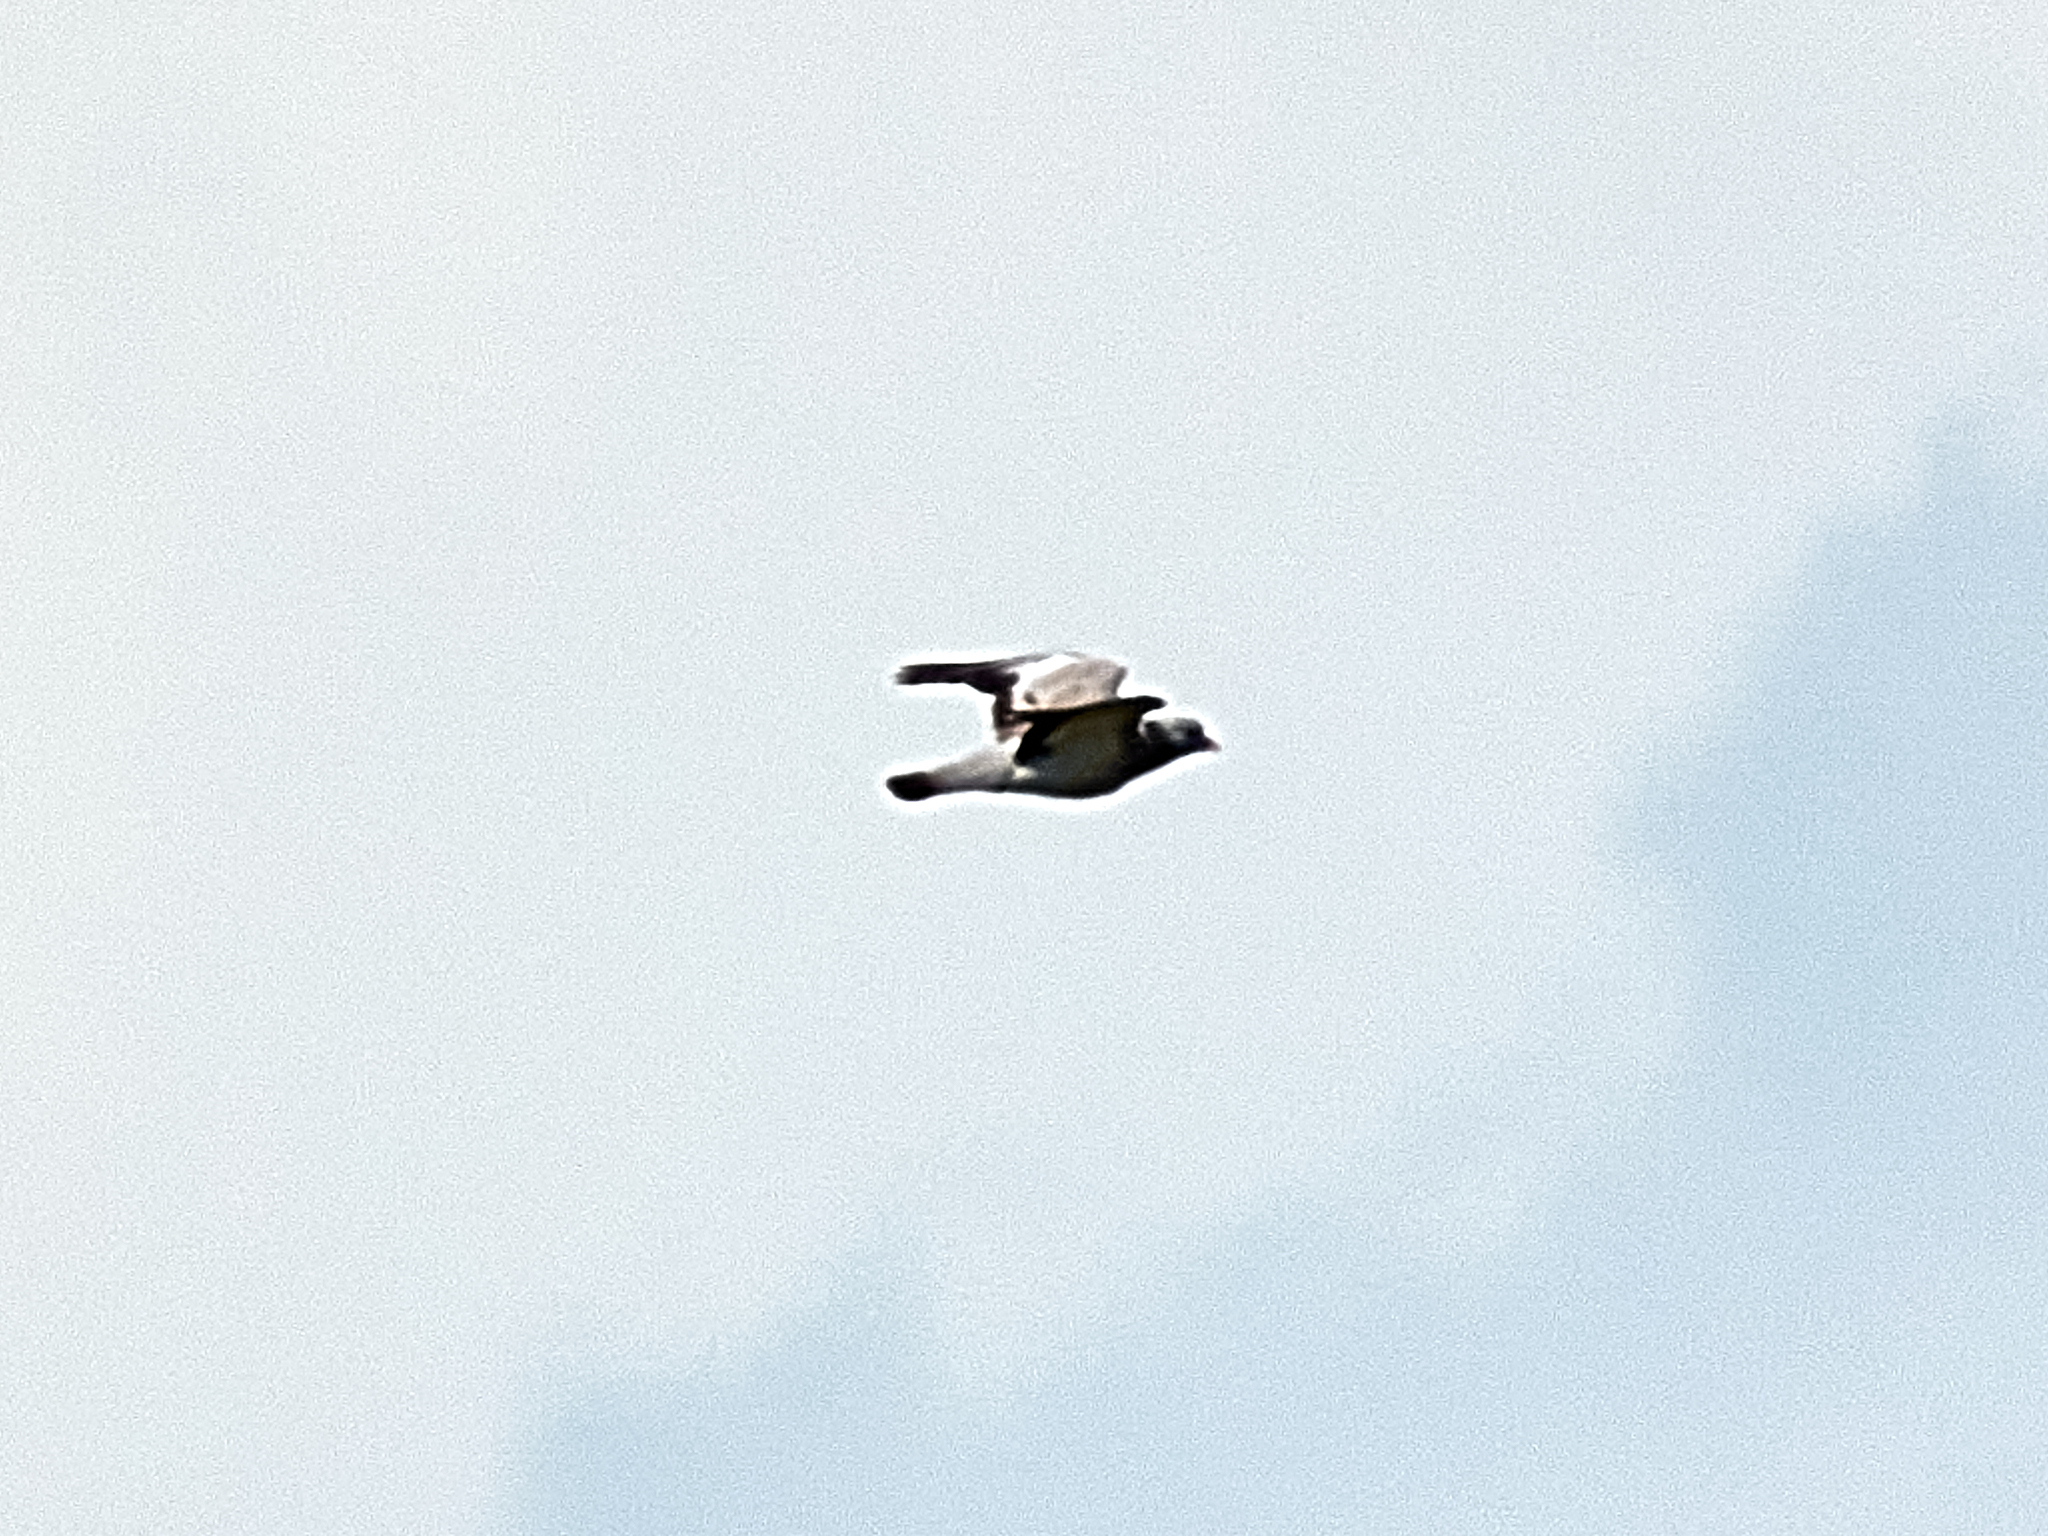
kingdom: Animalia
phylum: Chordata
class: Aves
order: Columbiformes
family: Columbidae
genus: Columba
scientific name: Columba oenas
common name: Stock dove
